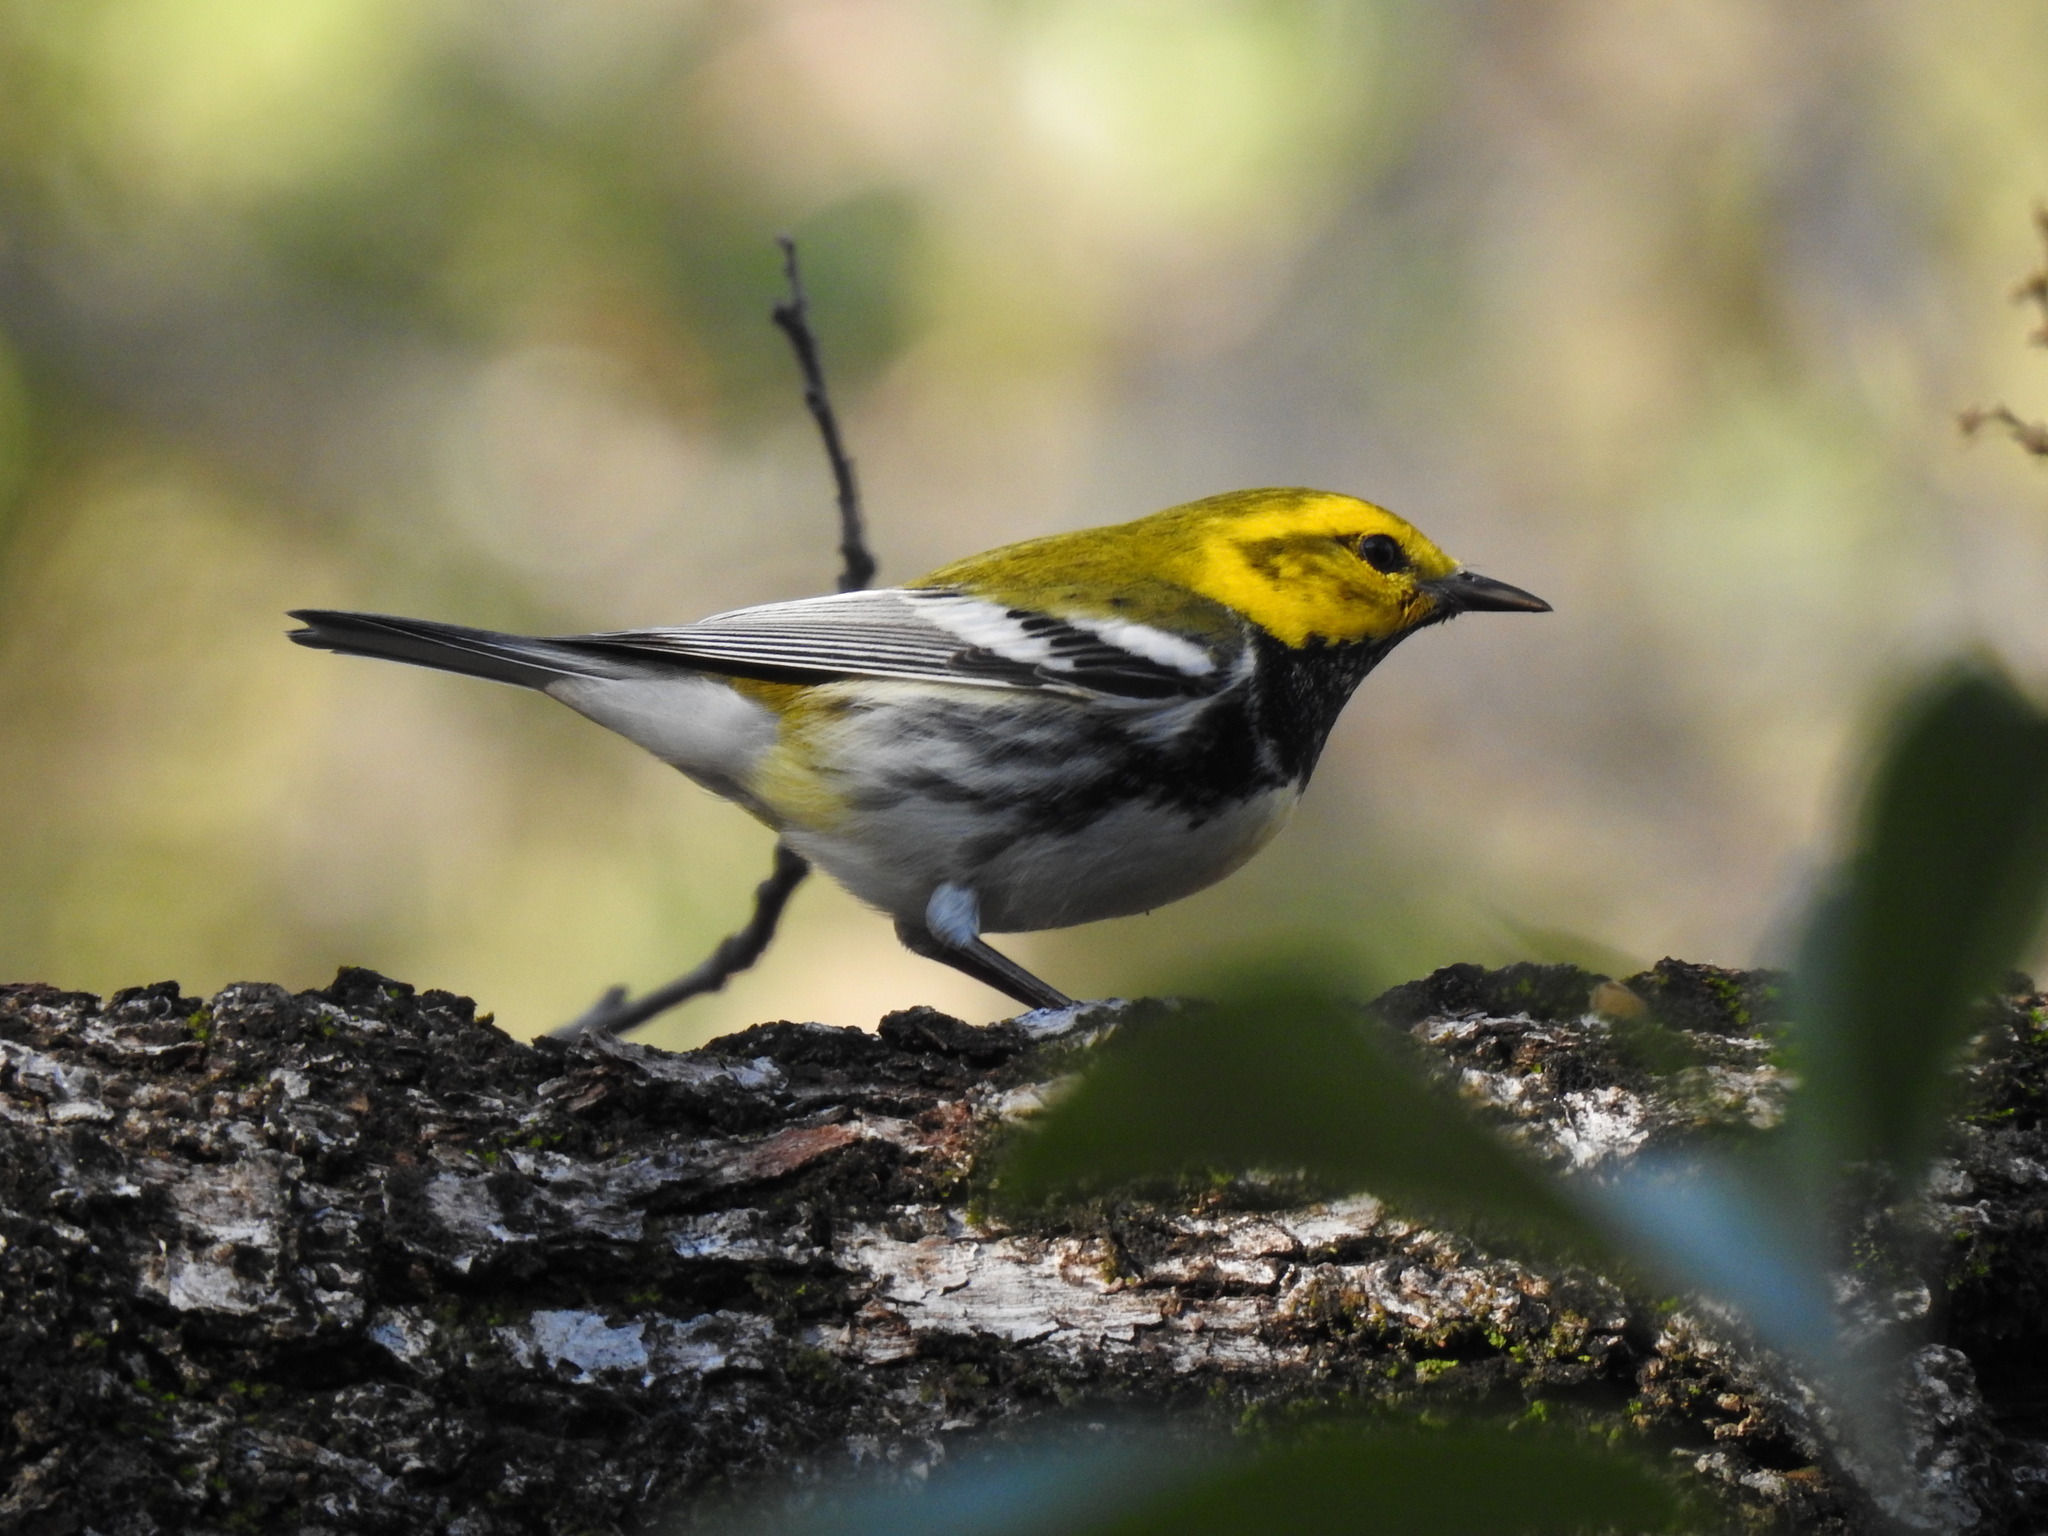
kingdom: Animalia
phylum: Chordata
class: Aves
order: Passeriformes
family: Parulidae
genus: Setophaga
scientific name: Setophaga virens
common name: Black-throated green warbler
